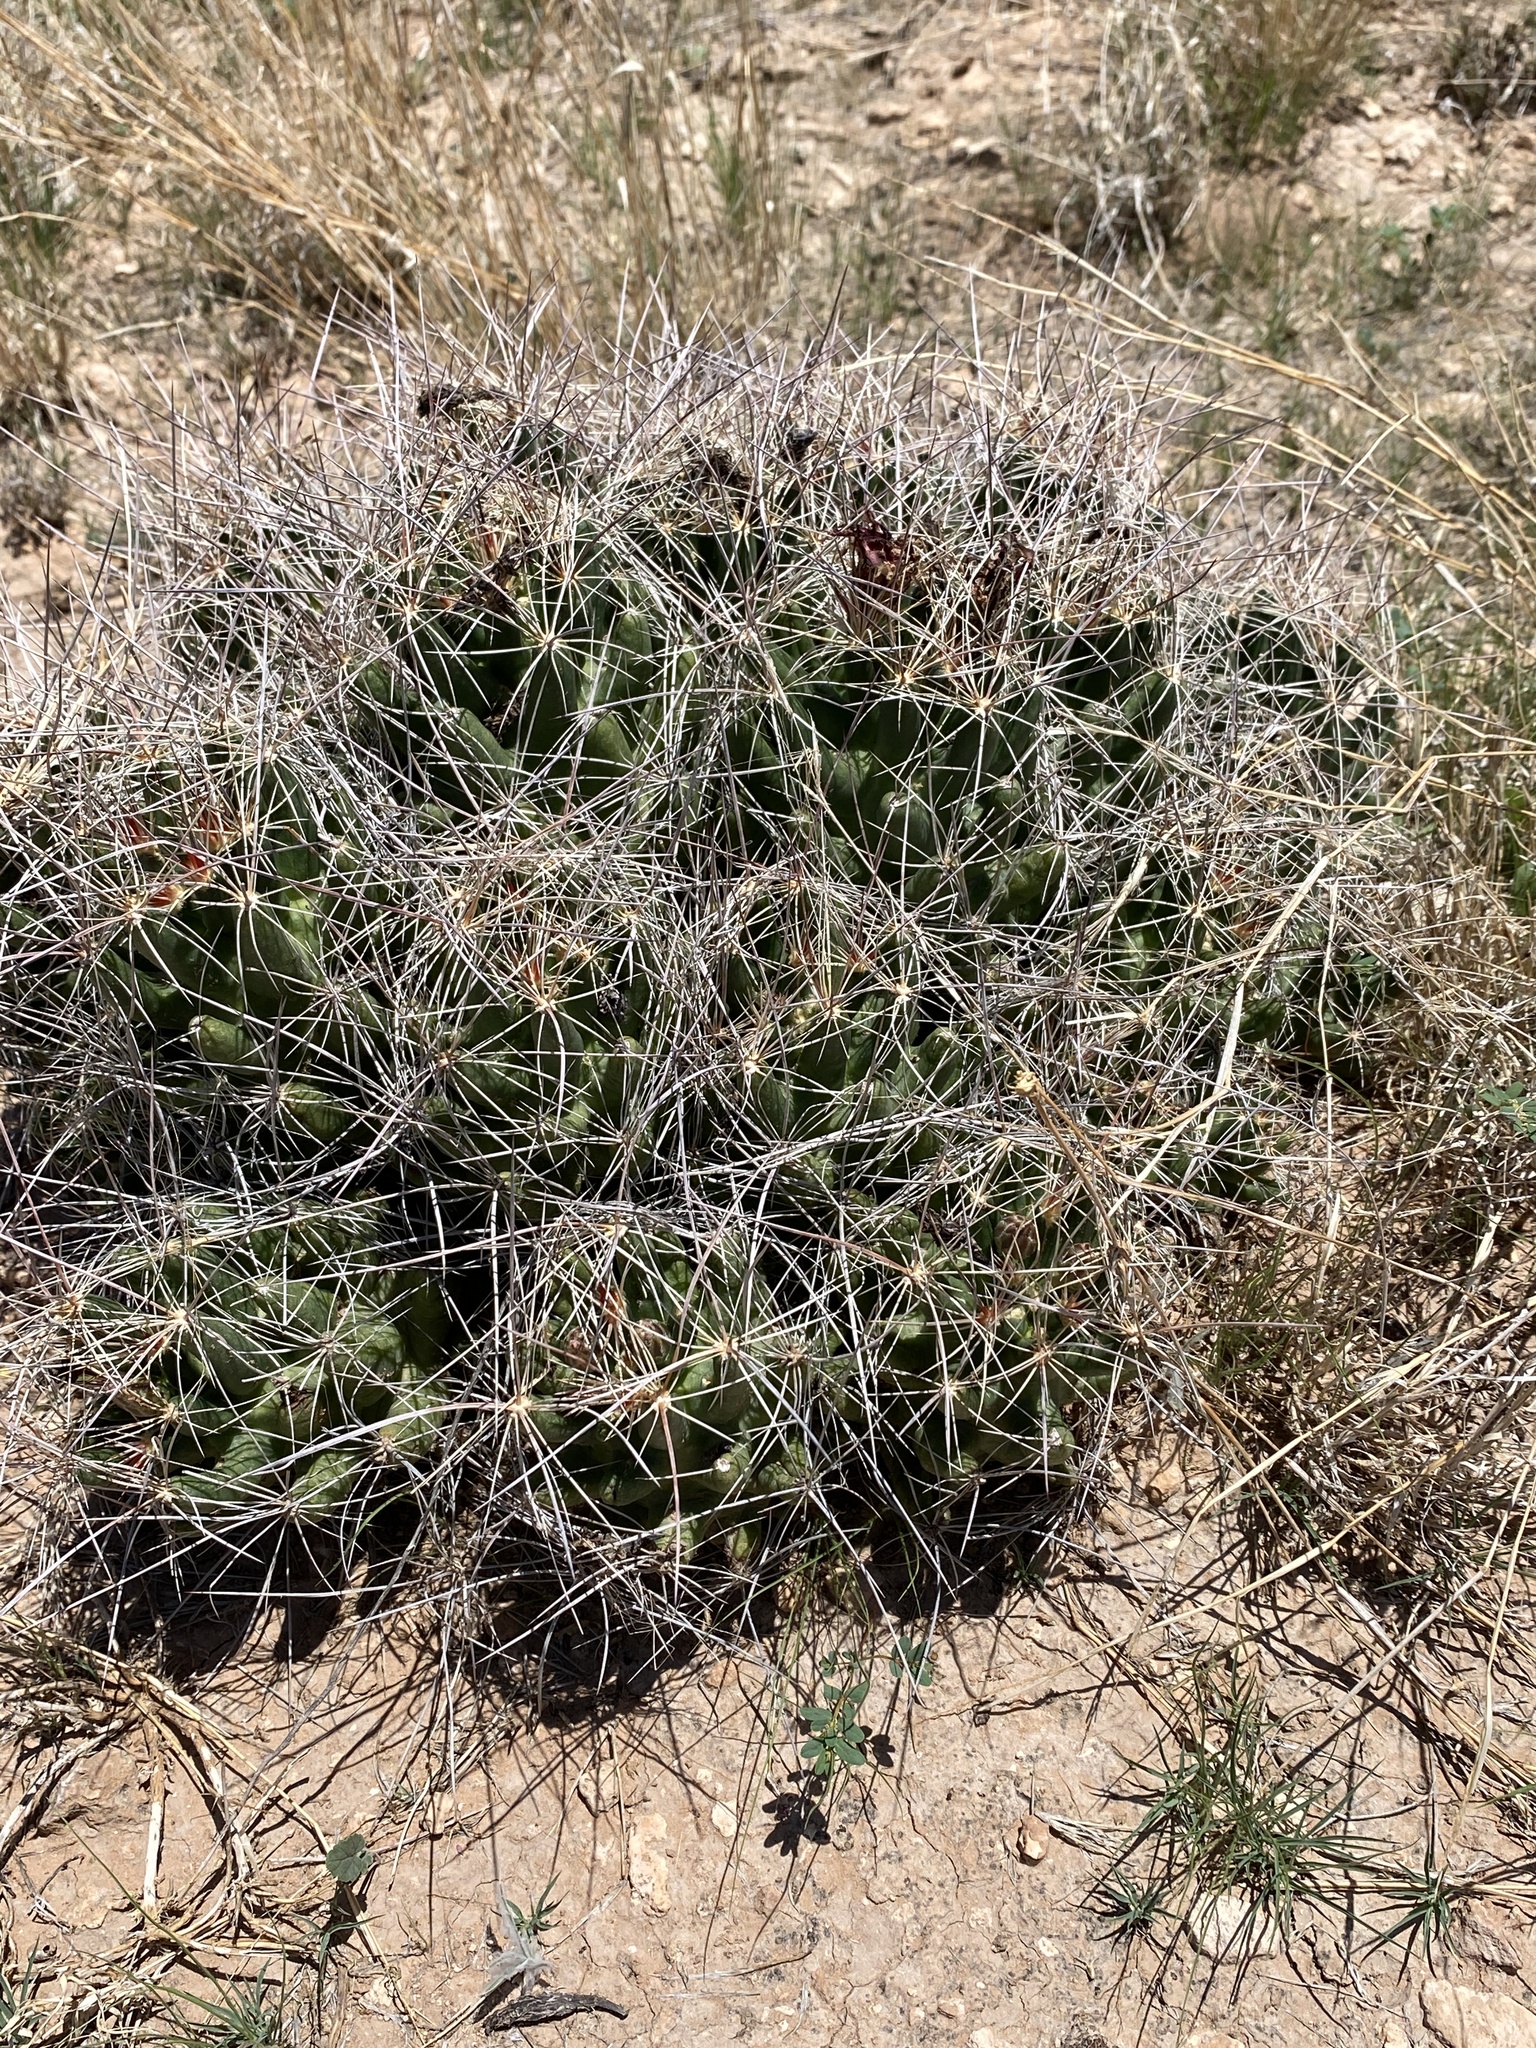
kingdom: Plantae
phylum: Tracheophyta
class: Magnoliopsida
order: Caryophyllales
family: Cactaceae
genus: Coryphantha
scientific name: Coryphantha macromeris
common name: Nipple beehive cactus
